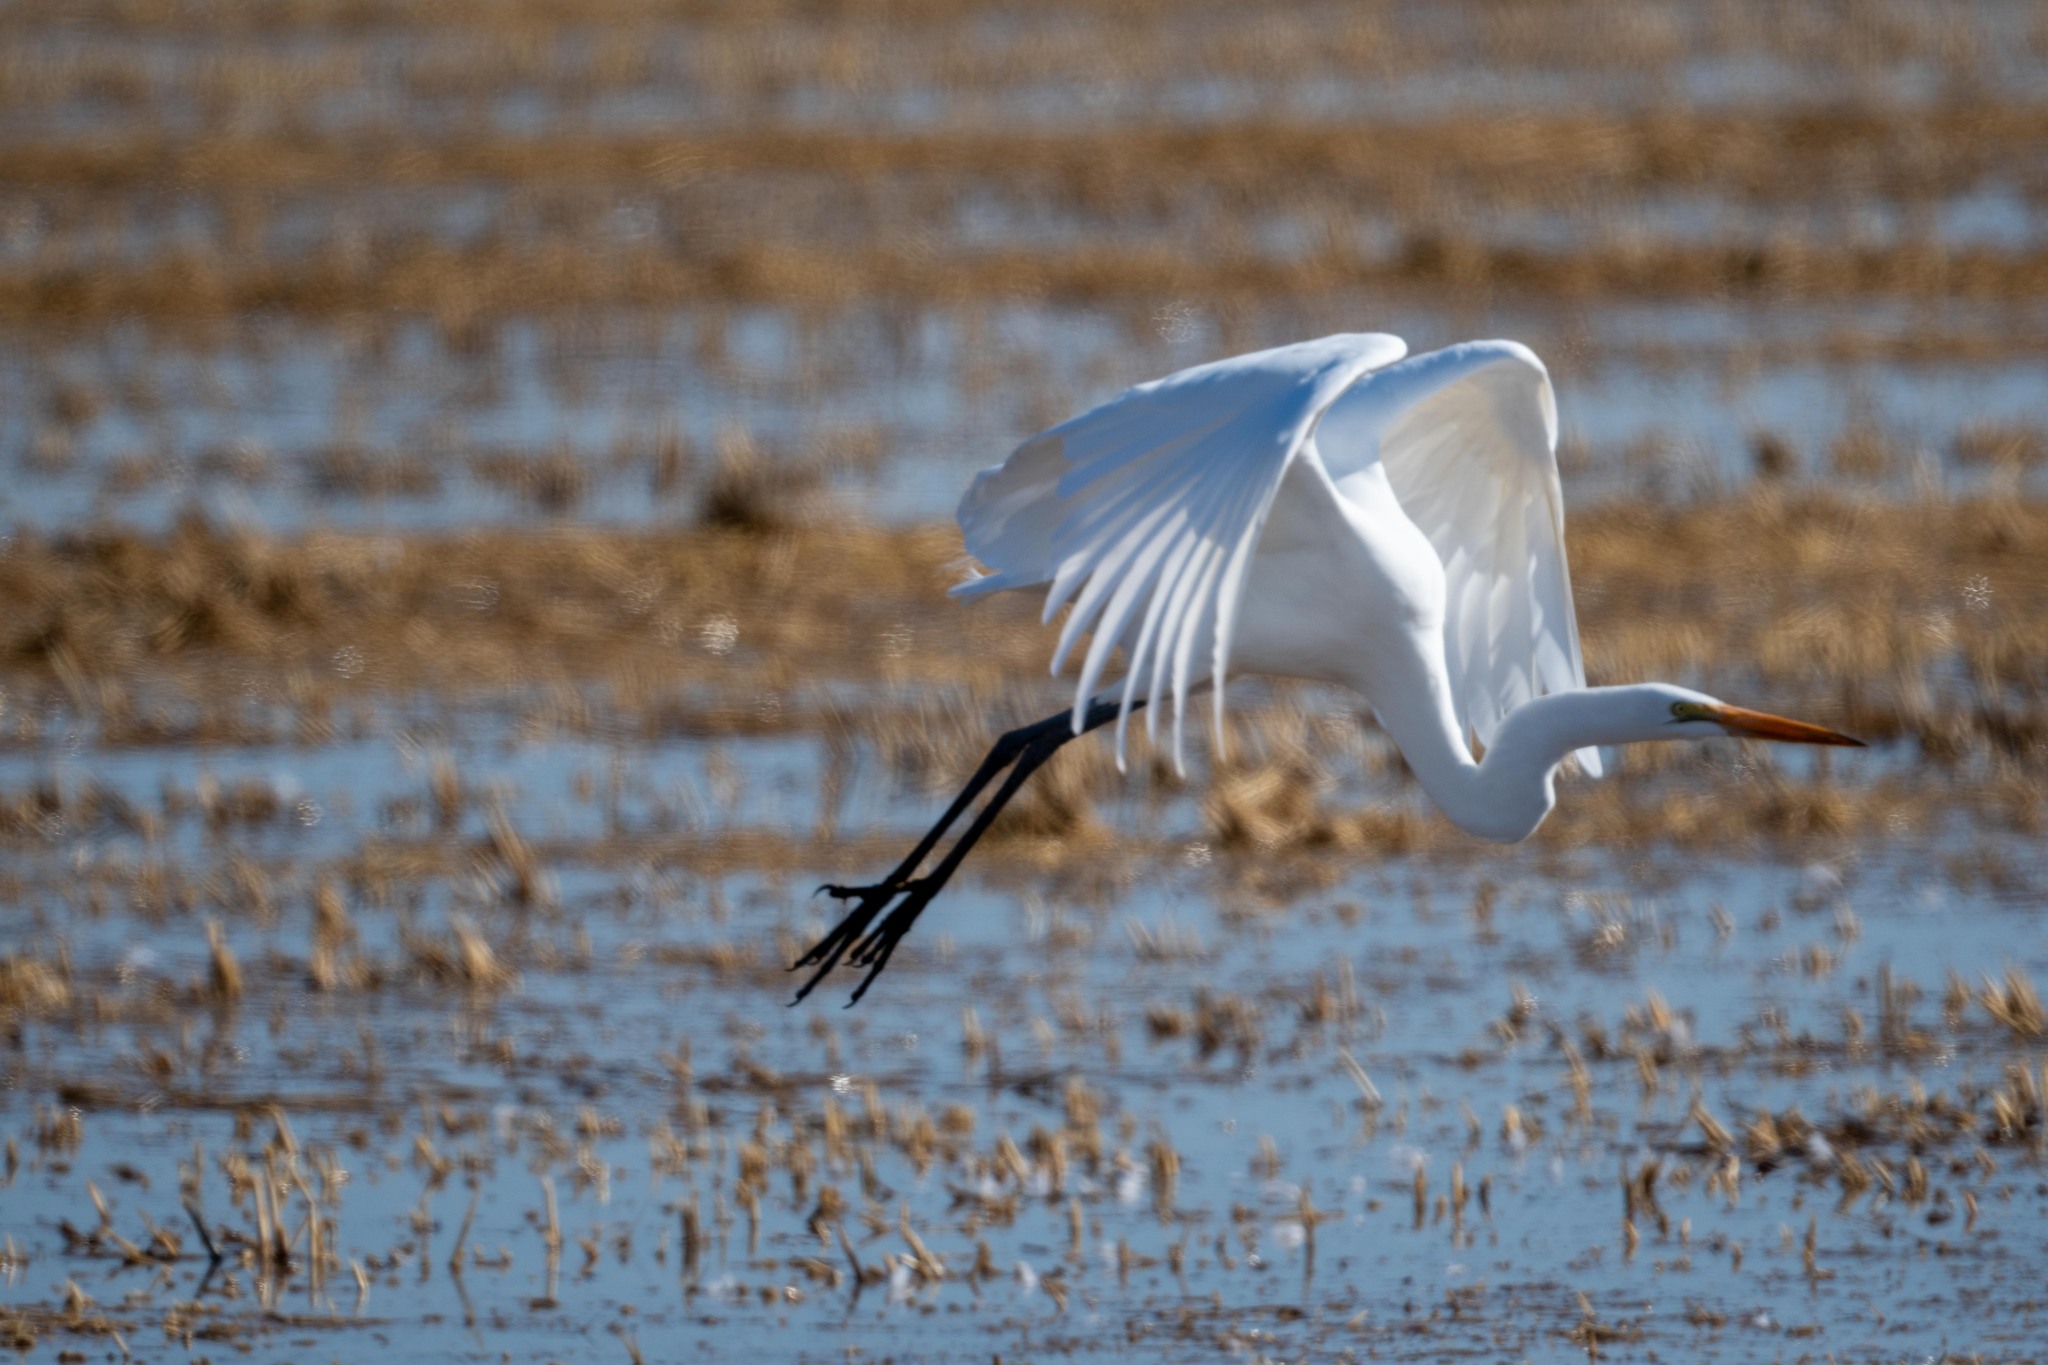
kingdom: Animalia
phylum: Chordata
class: Aves
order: Pelecaniformes
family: Ardeidae
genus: Ardea
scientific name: Ardea alba
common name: Great egret
